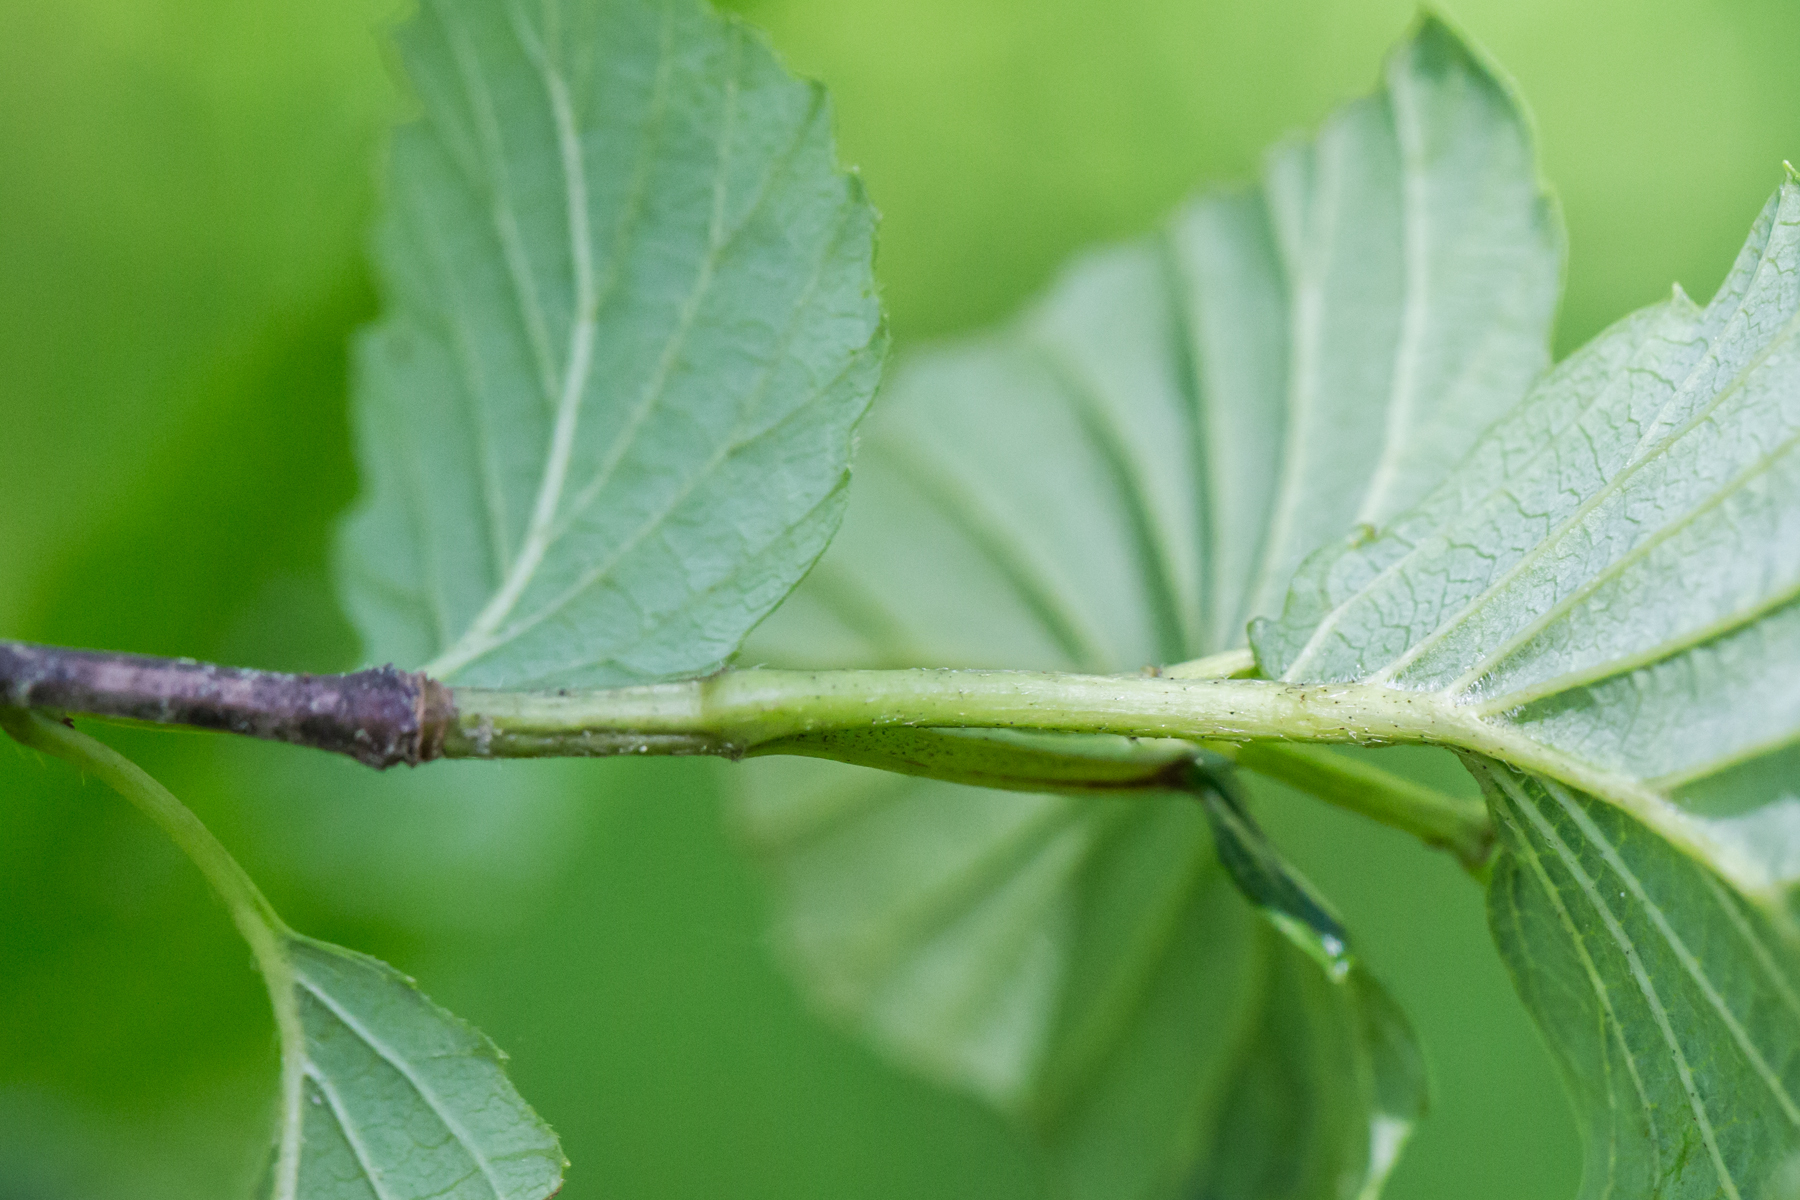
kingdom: Plantae
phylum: Tracheophyta
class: Magnoliopsida
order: Dipsacales
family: Viburnaceae
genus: Viburnum
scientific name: Viburnum dentatum
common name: Arrow-wood
